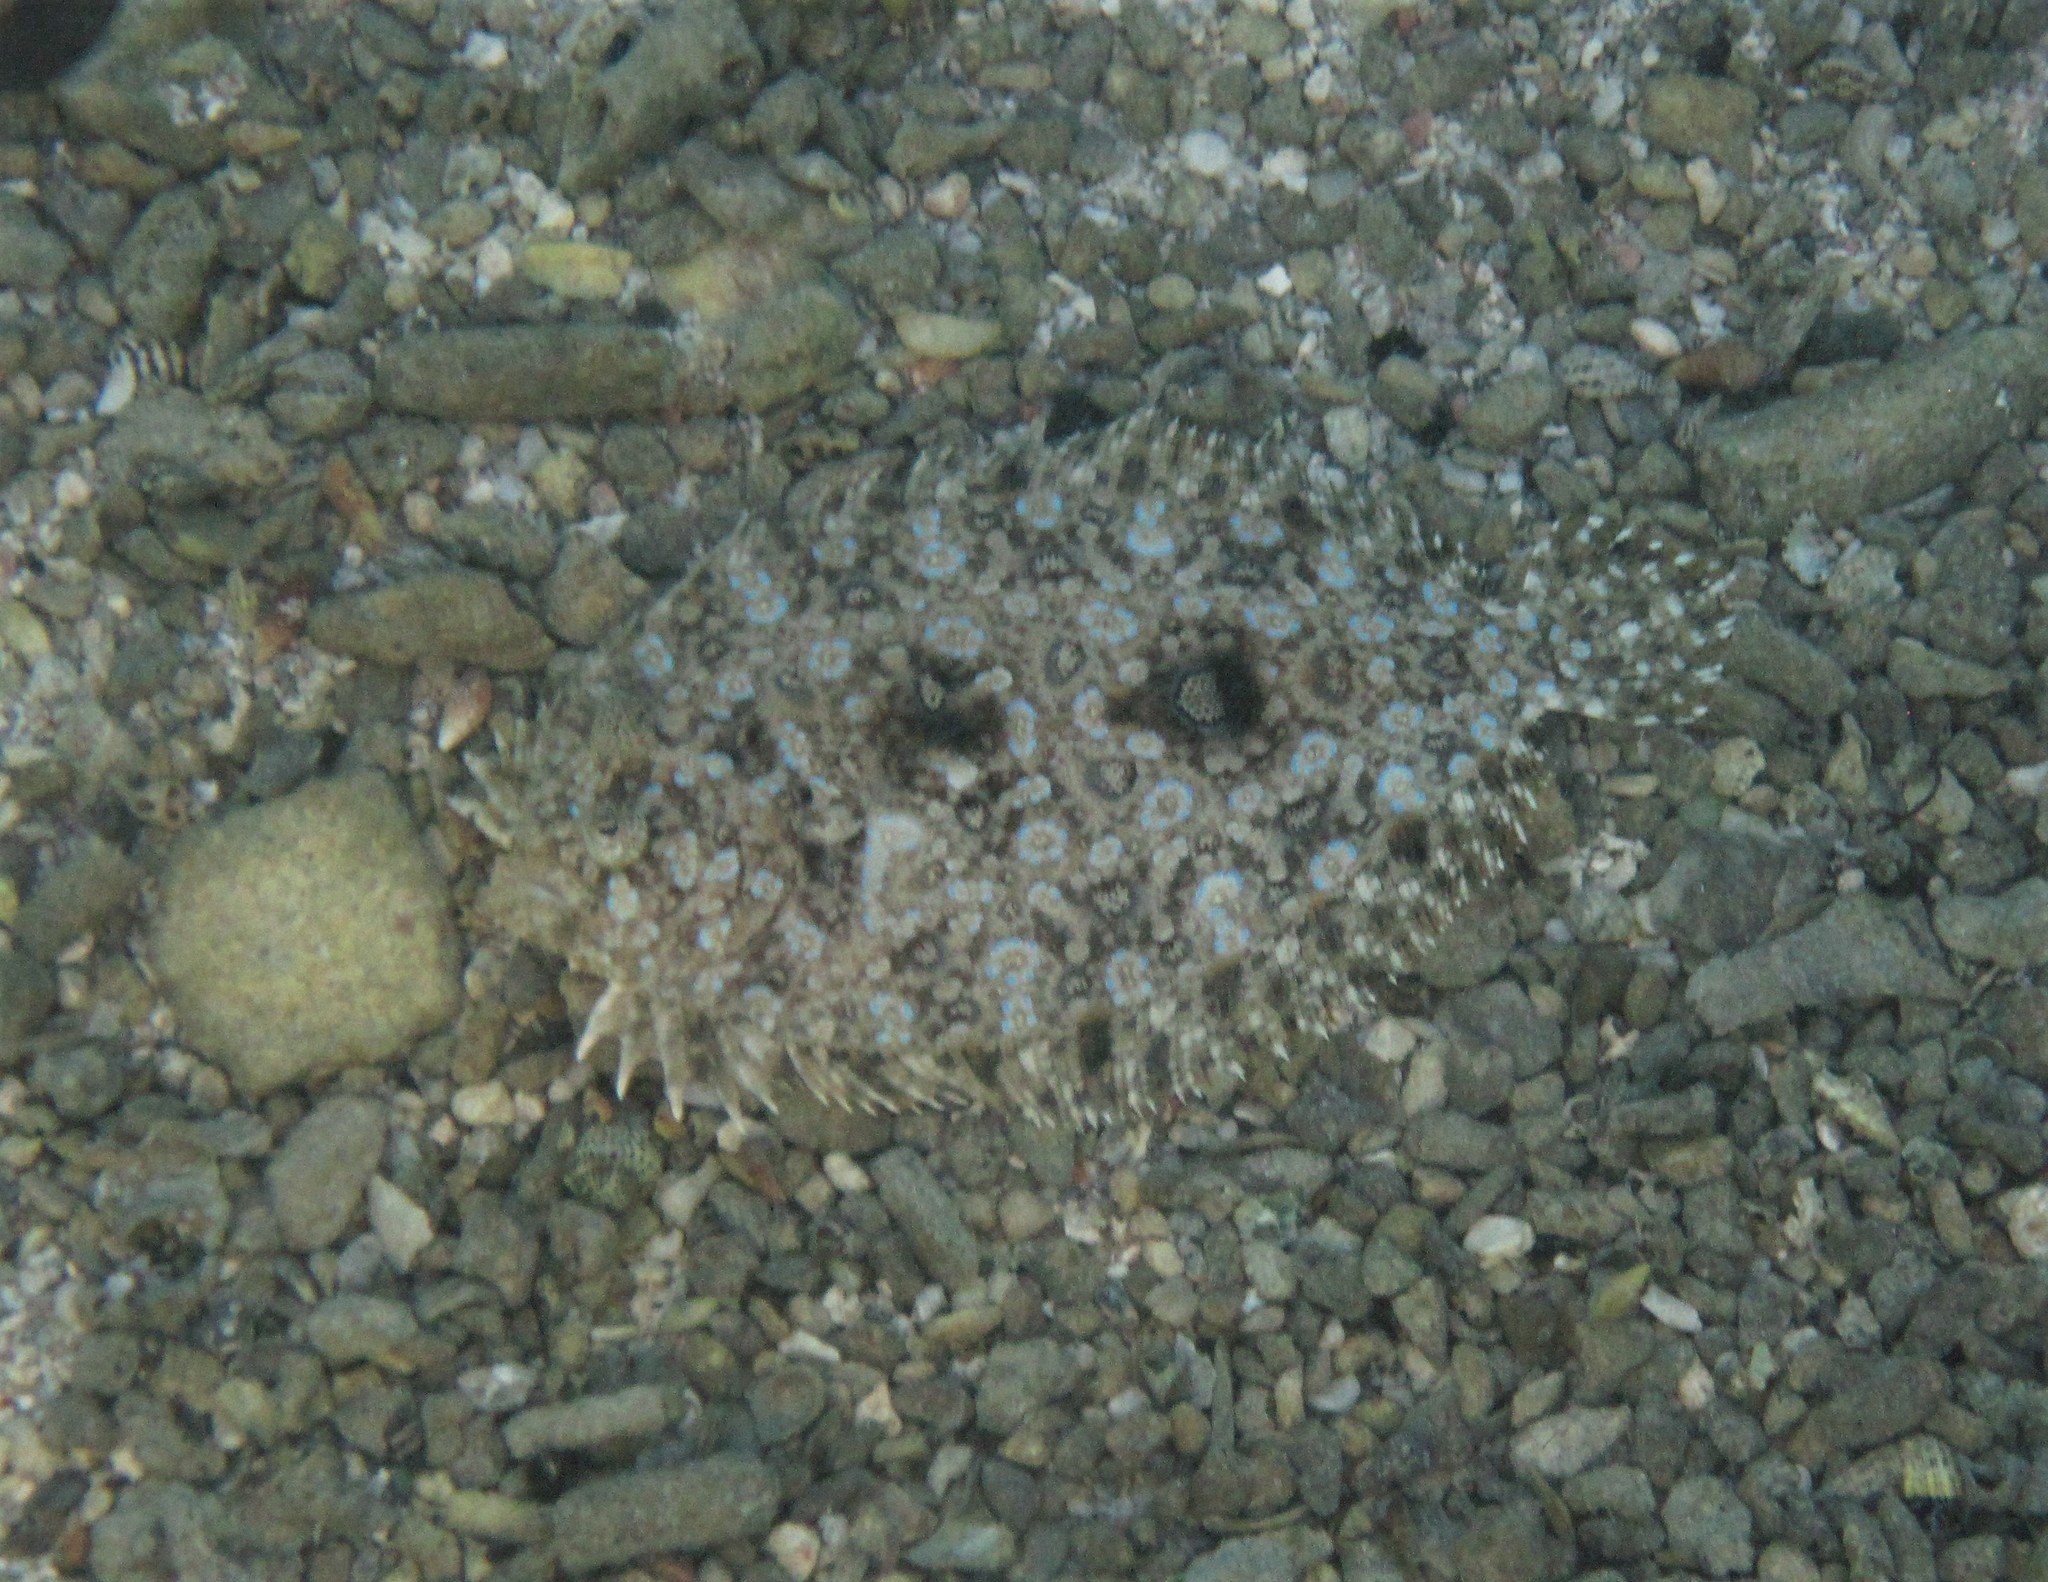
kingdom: Animalia
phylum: Chordata
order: Pleuronectiformes
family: Bothidae
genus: Bothus
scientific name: Bothus lunatus
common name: Peacock flounder
